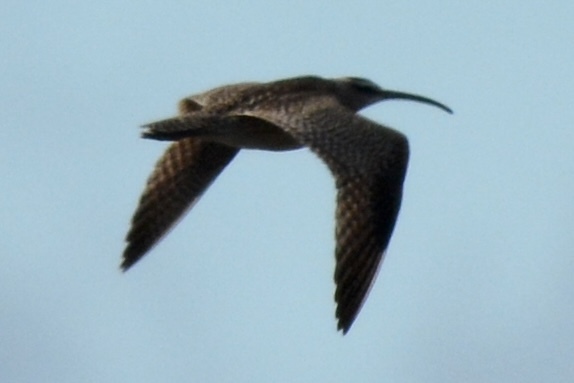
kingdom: Animalia
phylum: Chordata
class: Aves
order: Charadriiformes
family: Scolopacidae
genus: Numenius
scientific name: Numenius phaeopus
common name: Whimbrel
